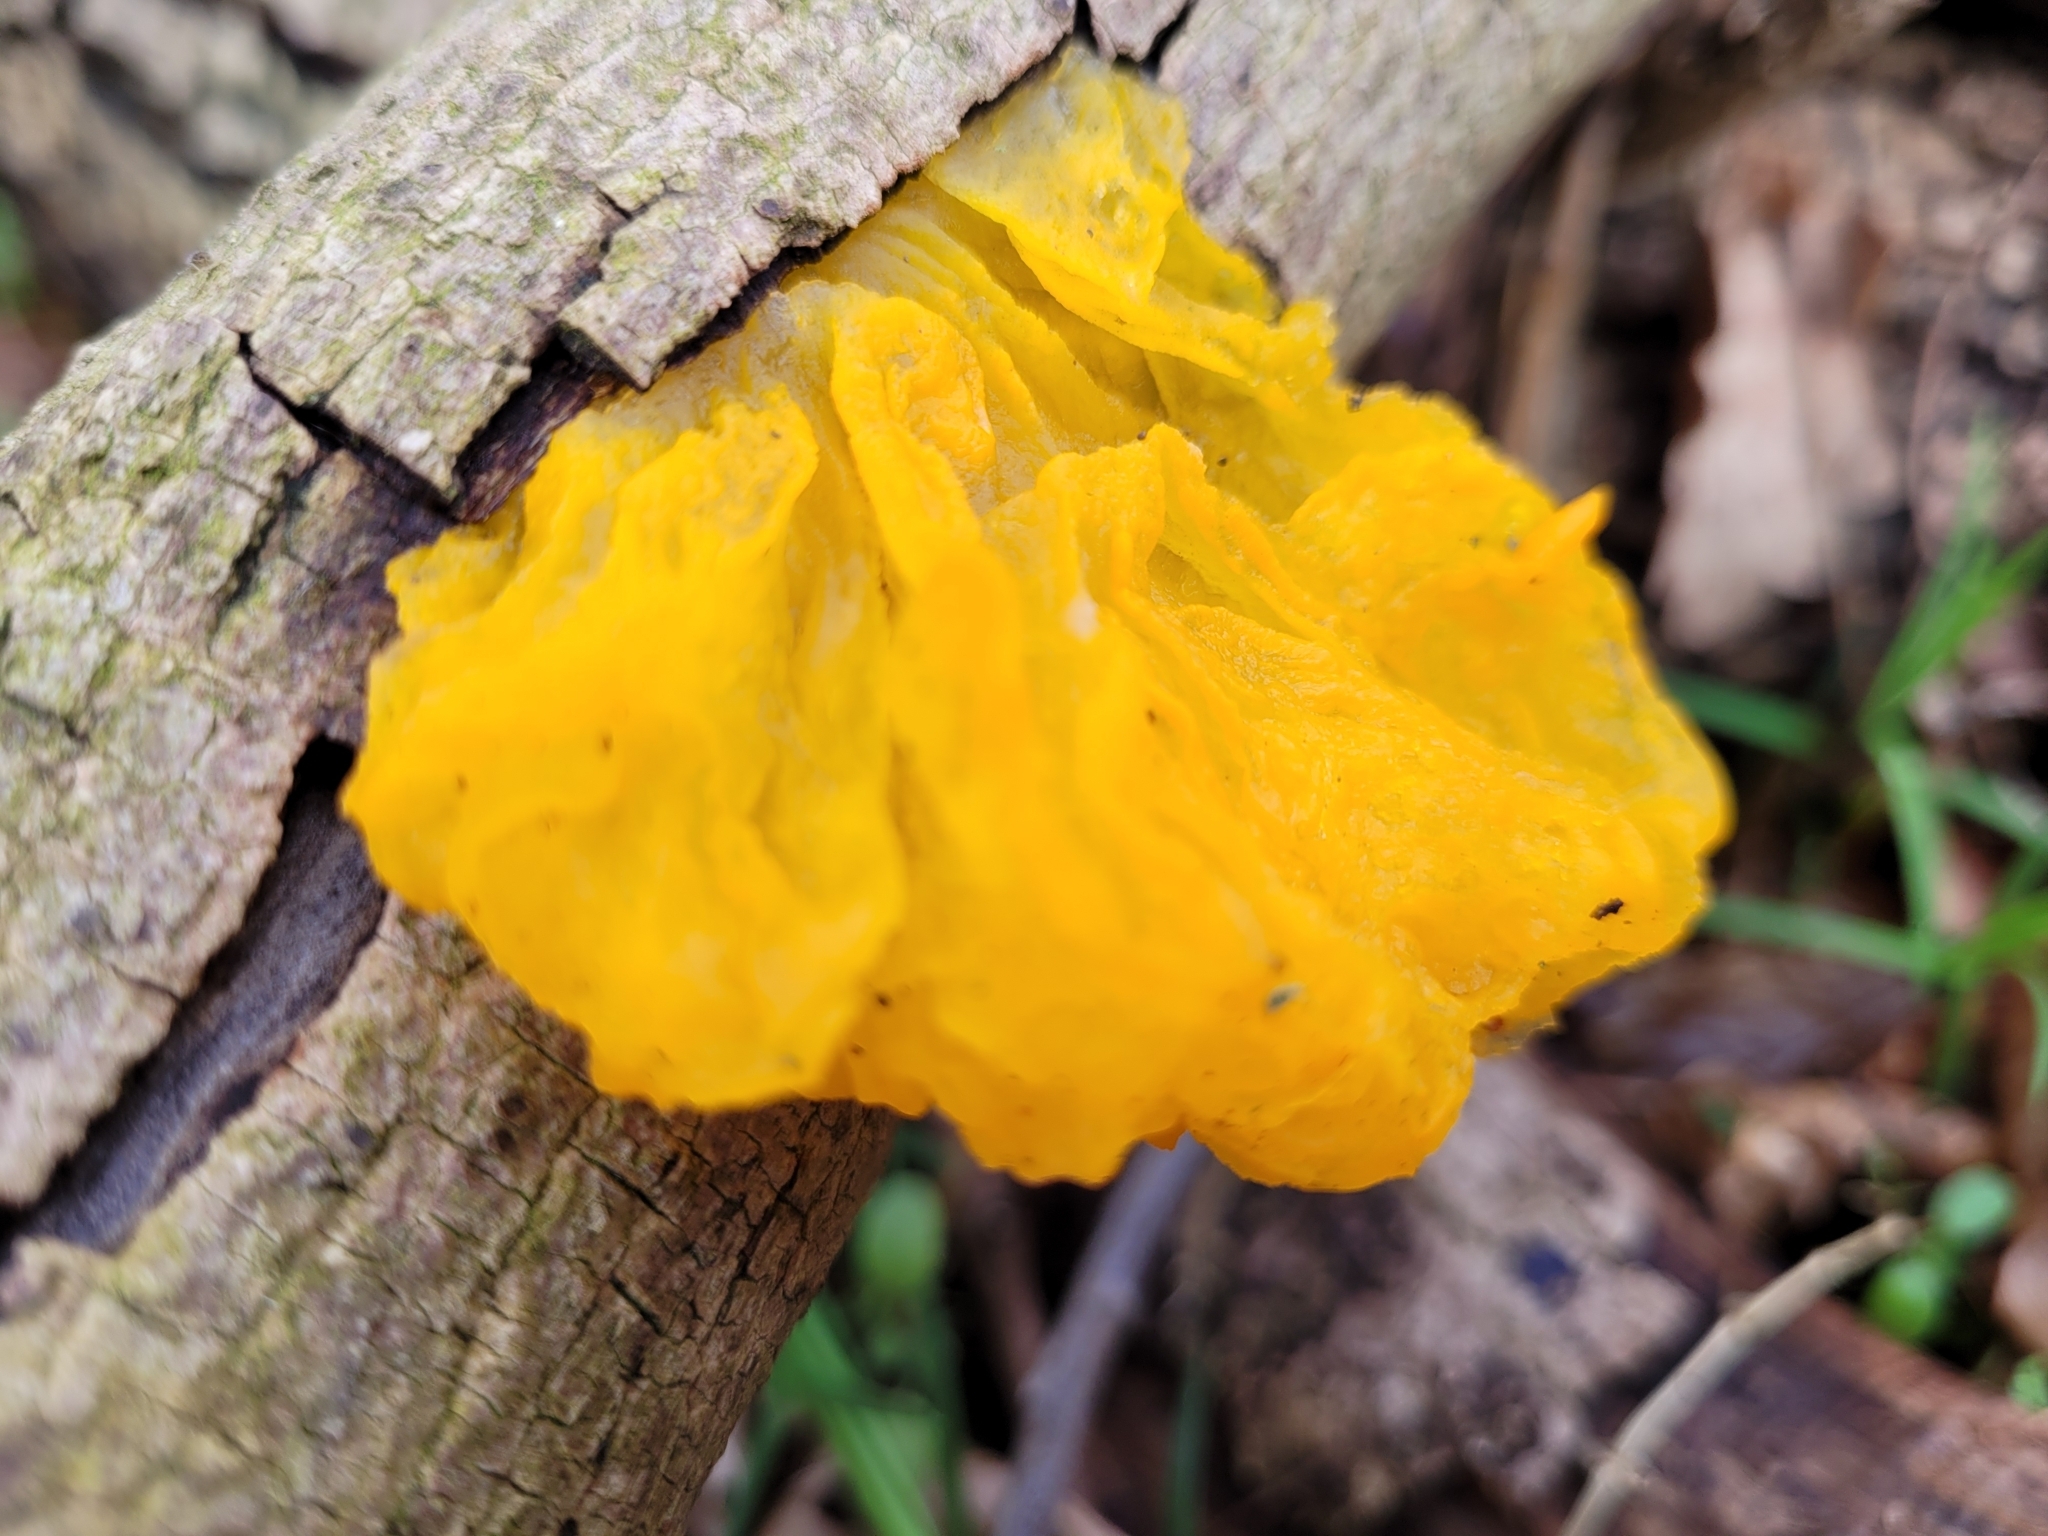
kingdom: Fungi
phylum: Basidiomycota
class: Tremellomycetes
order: Tremellales
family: Tremellaceae
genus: Tremella
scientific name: Tremella mesenterica
